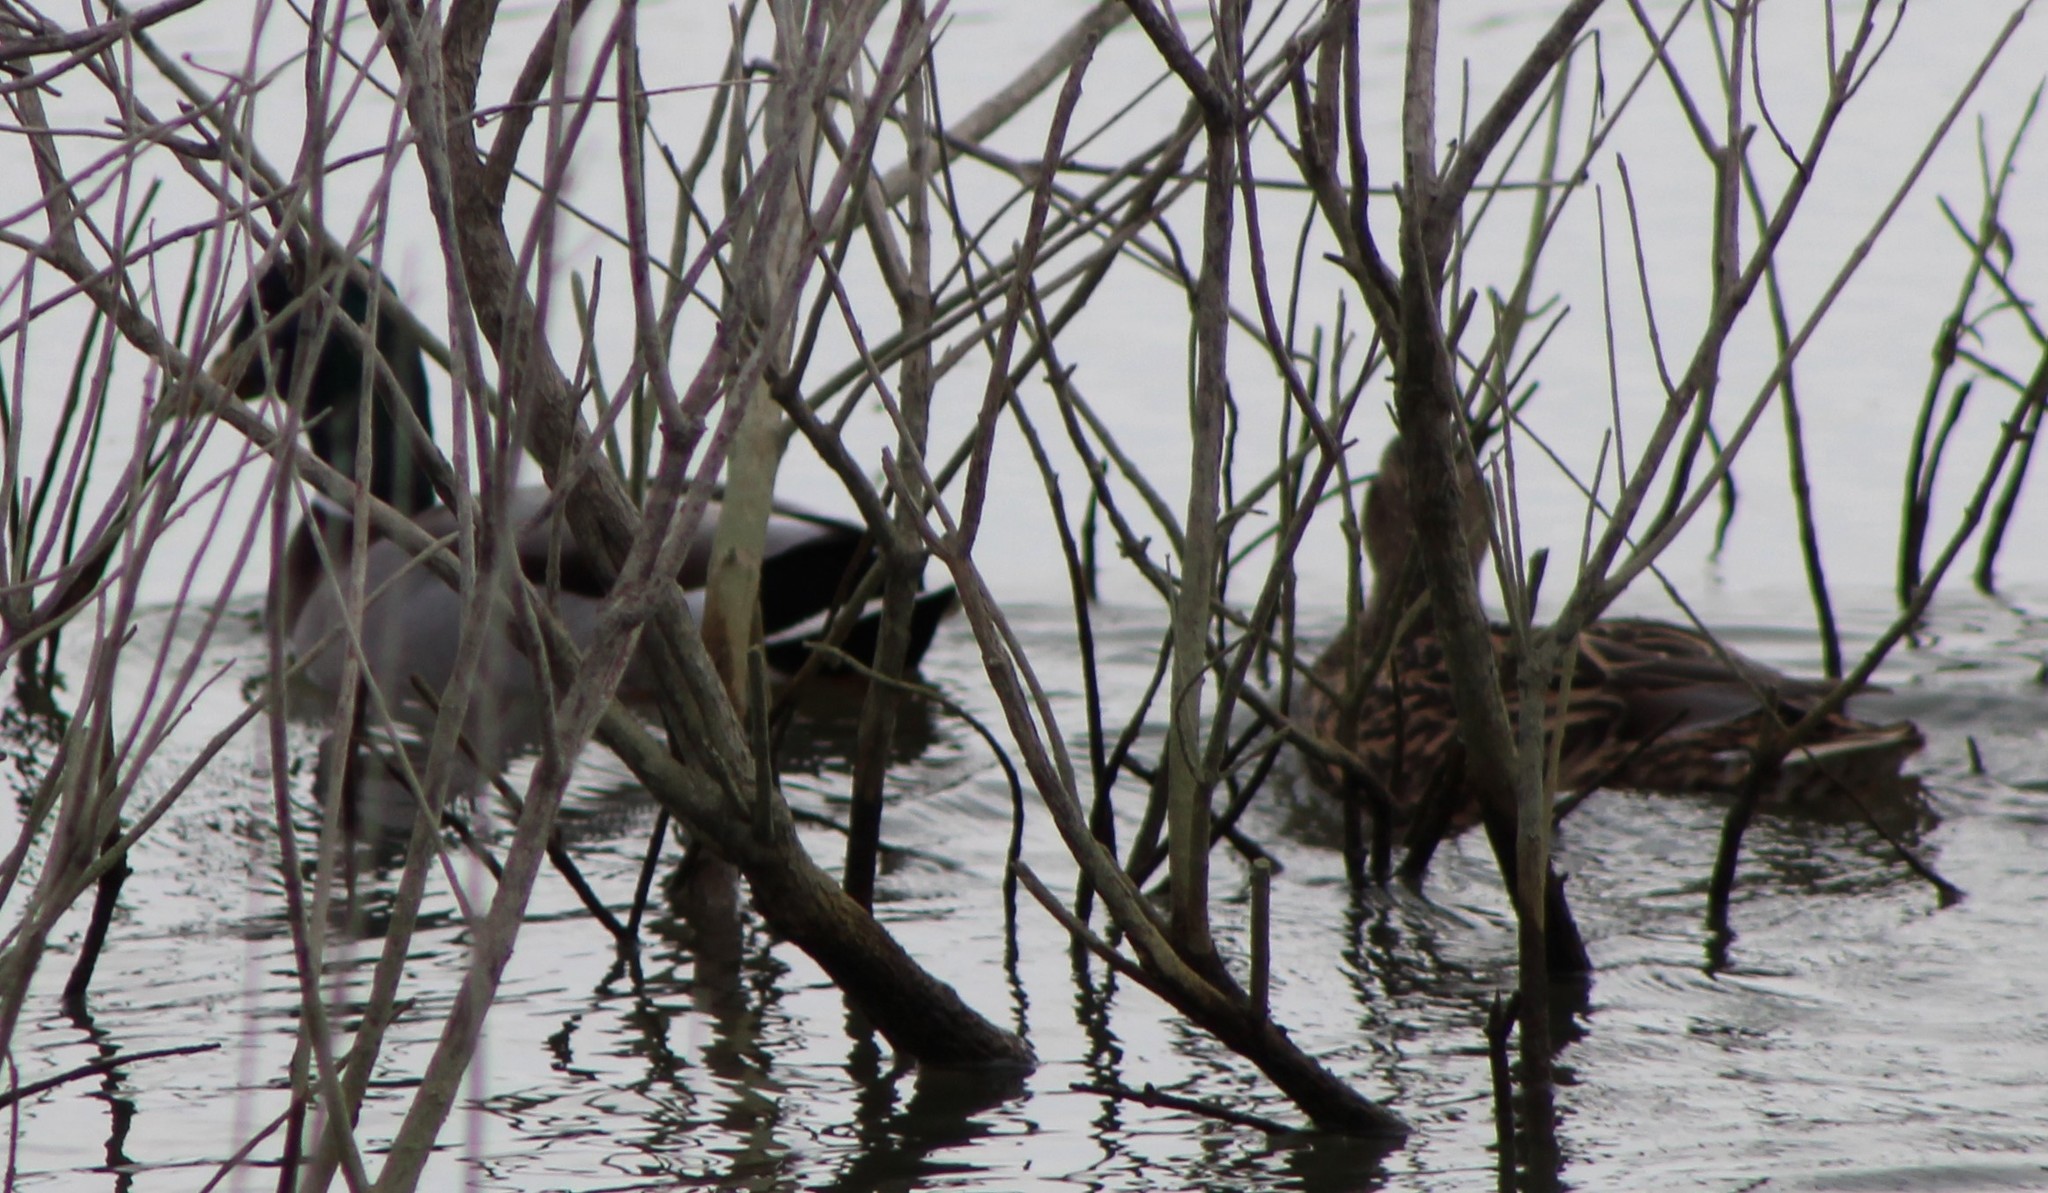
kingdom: Animalia
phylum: Chordata
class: Aves
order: Anseriformes
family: Anatidae
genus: Anas
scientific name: Anas platyrhynchos
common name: Mallard
